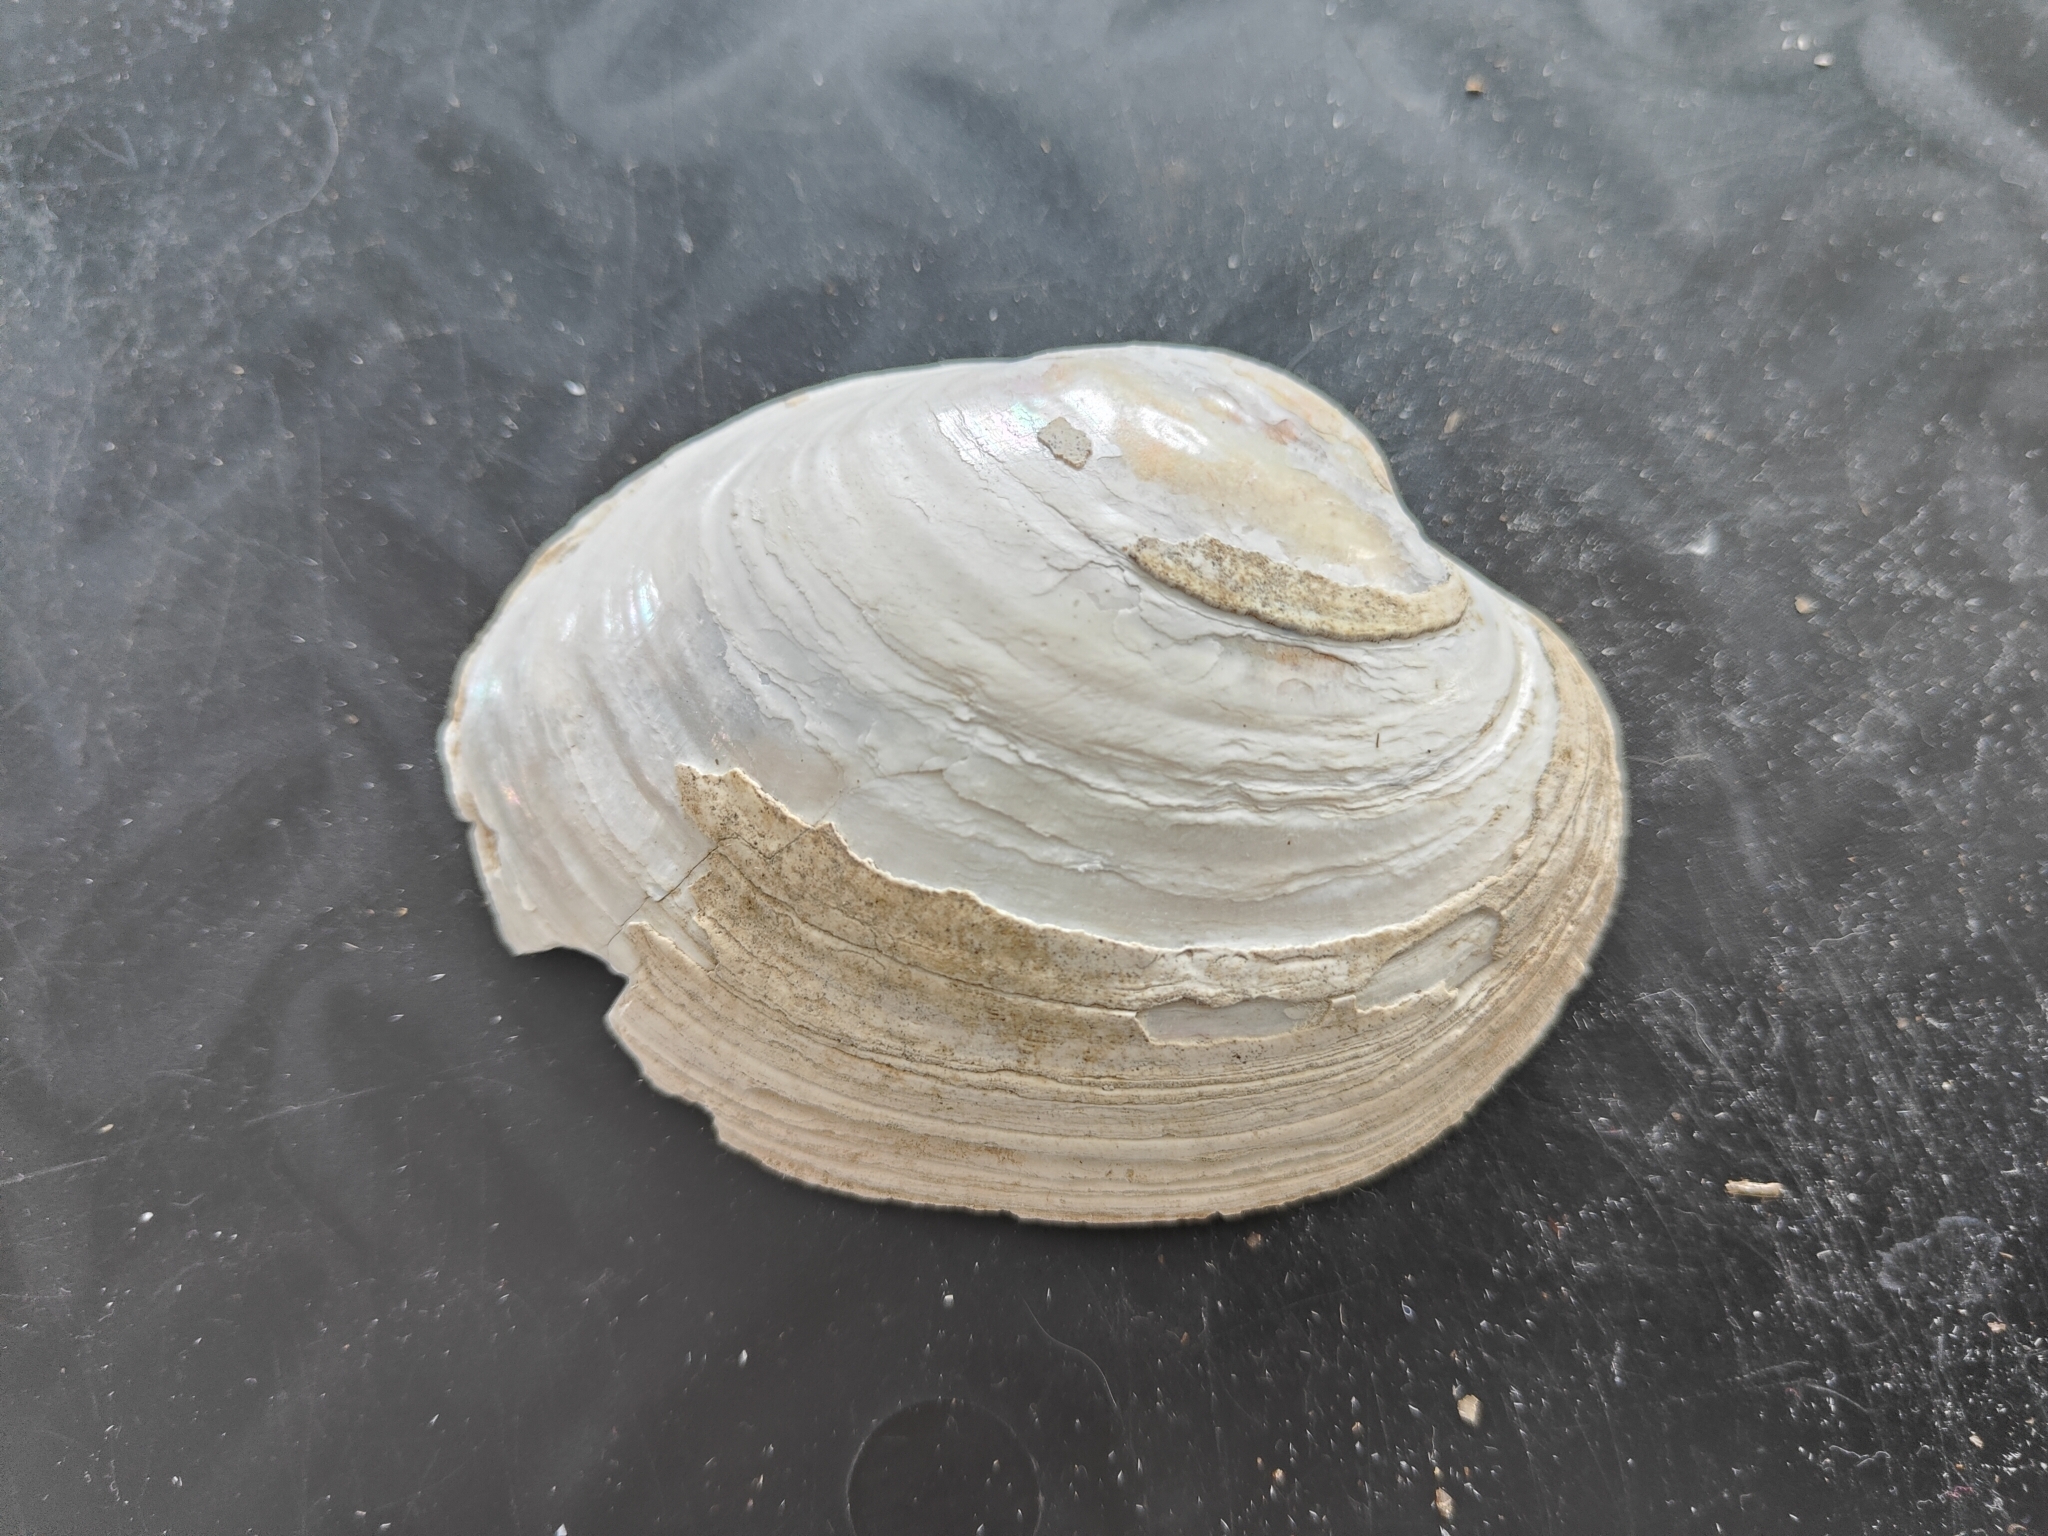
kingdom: Animalia
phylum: Mollusca
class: Bivalvia
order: Unionida
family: Unionidae
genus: Lampsilis
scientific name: Lampsilis cardium
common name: Plain pocketbook
